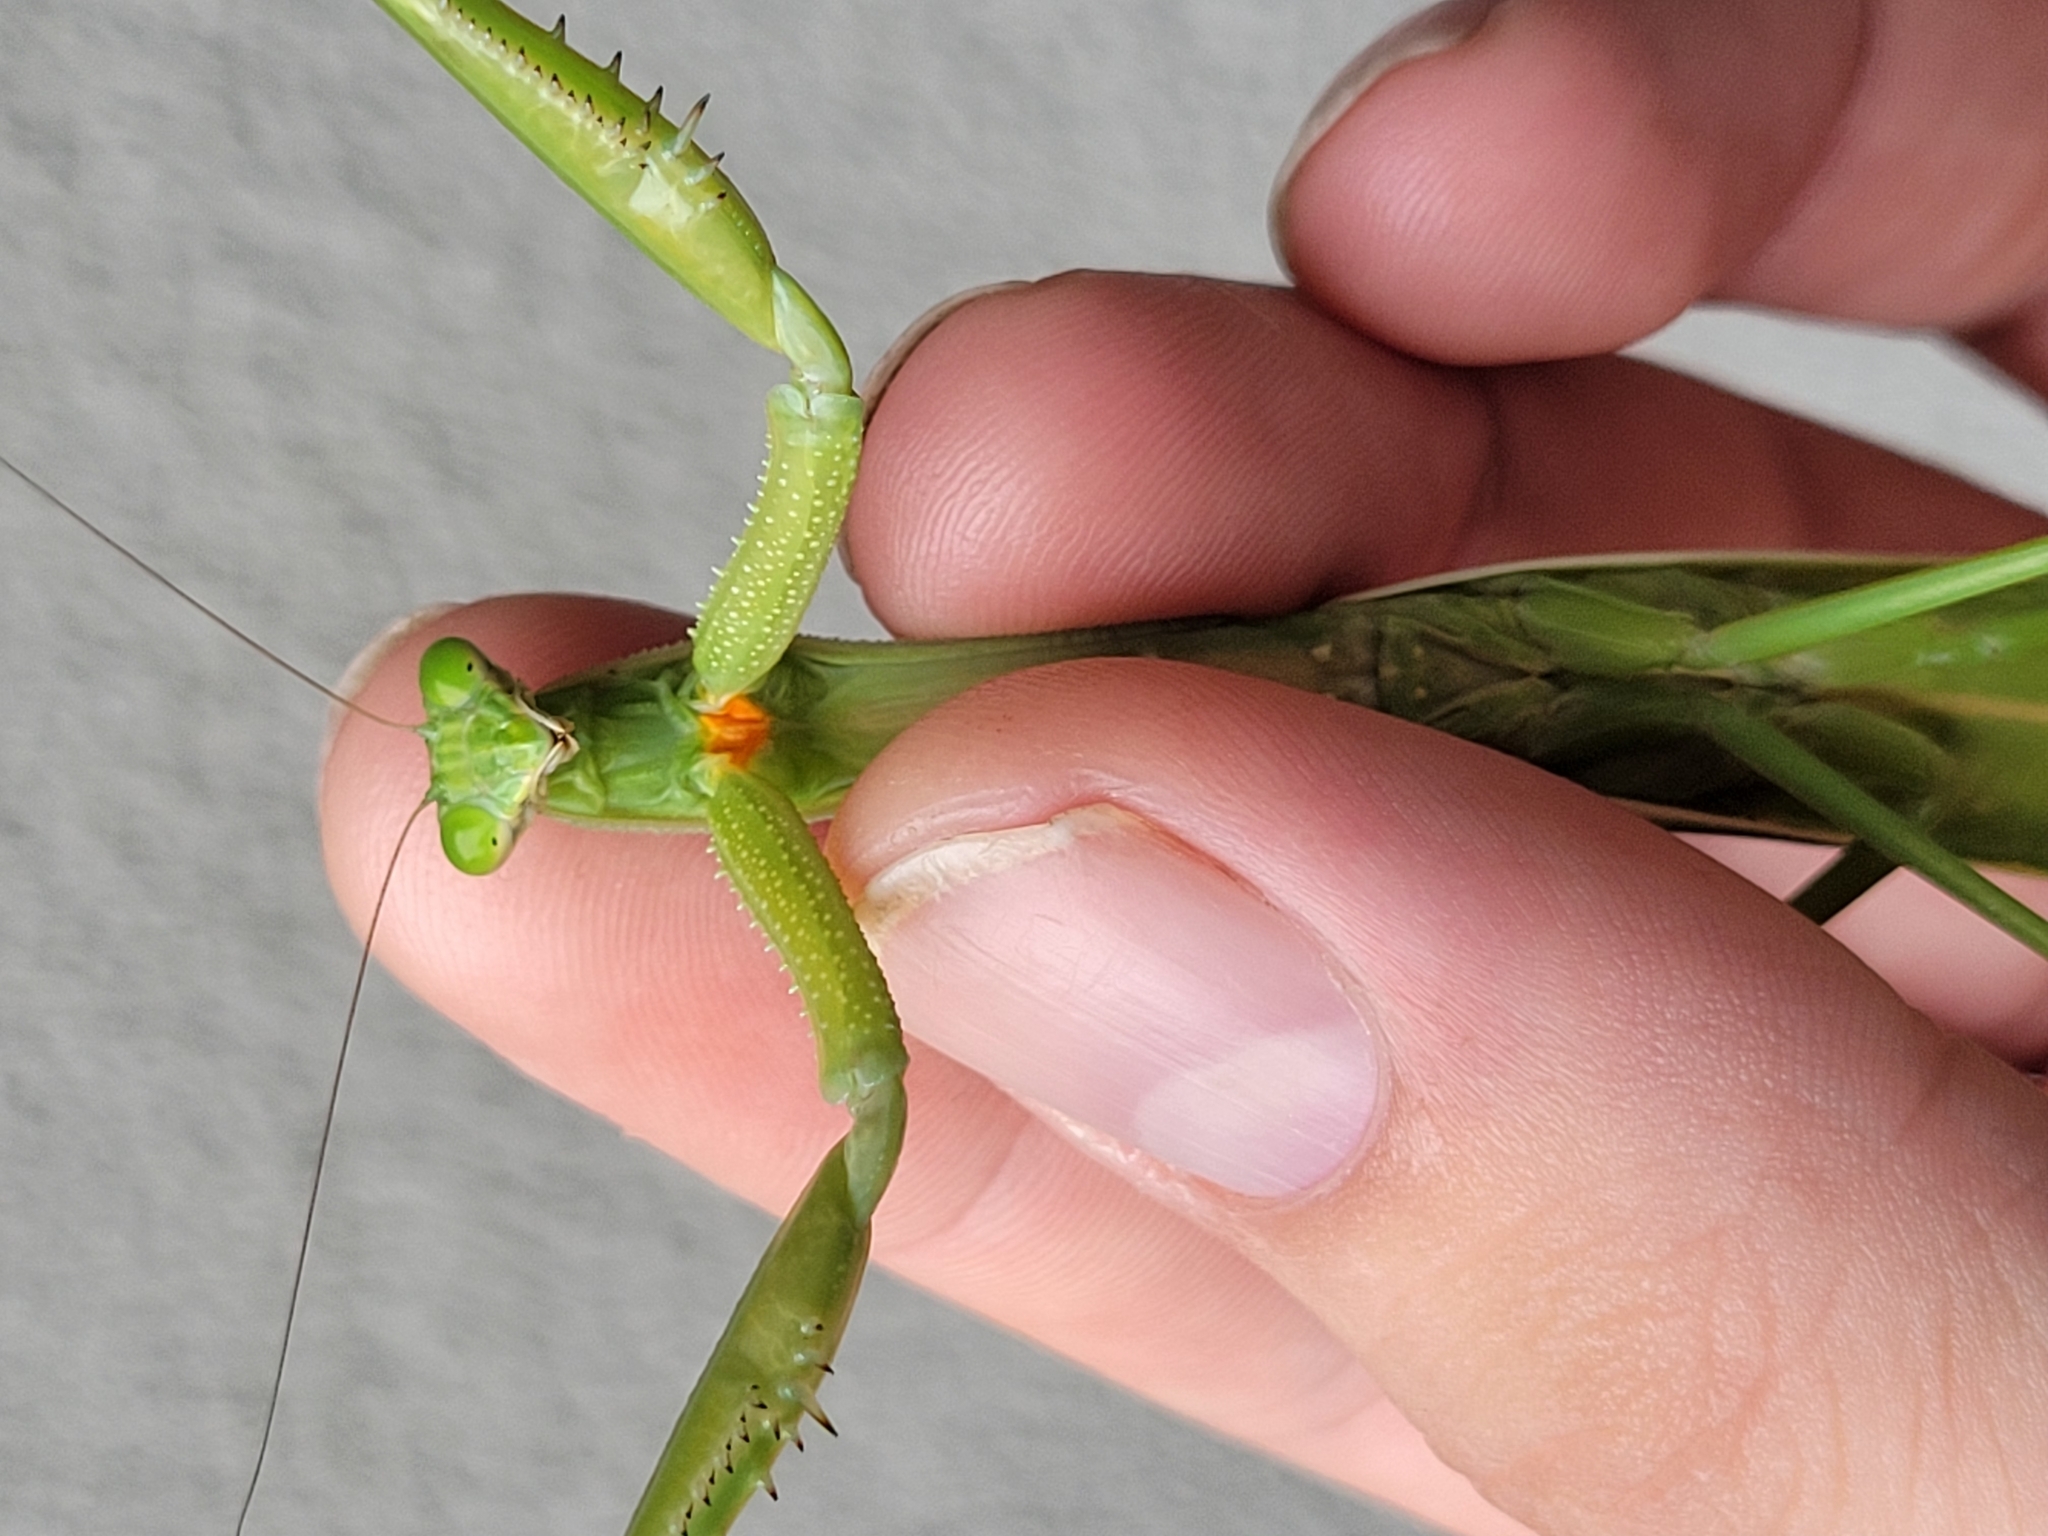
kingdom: Animalia
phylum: Arthropoda
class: Insecta
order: Mantodea
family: Mantidae
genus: Tenodera
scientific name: Tenodera angustipennis
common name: Asian mantis
